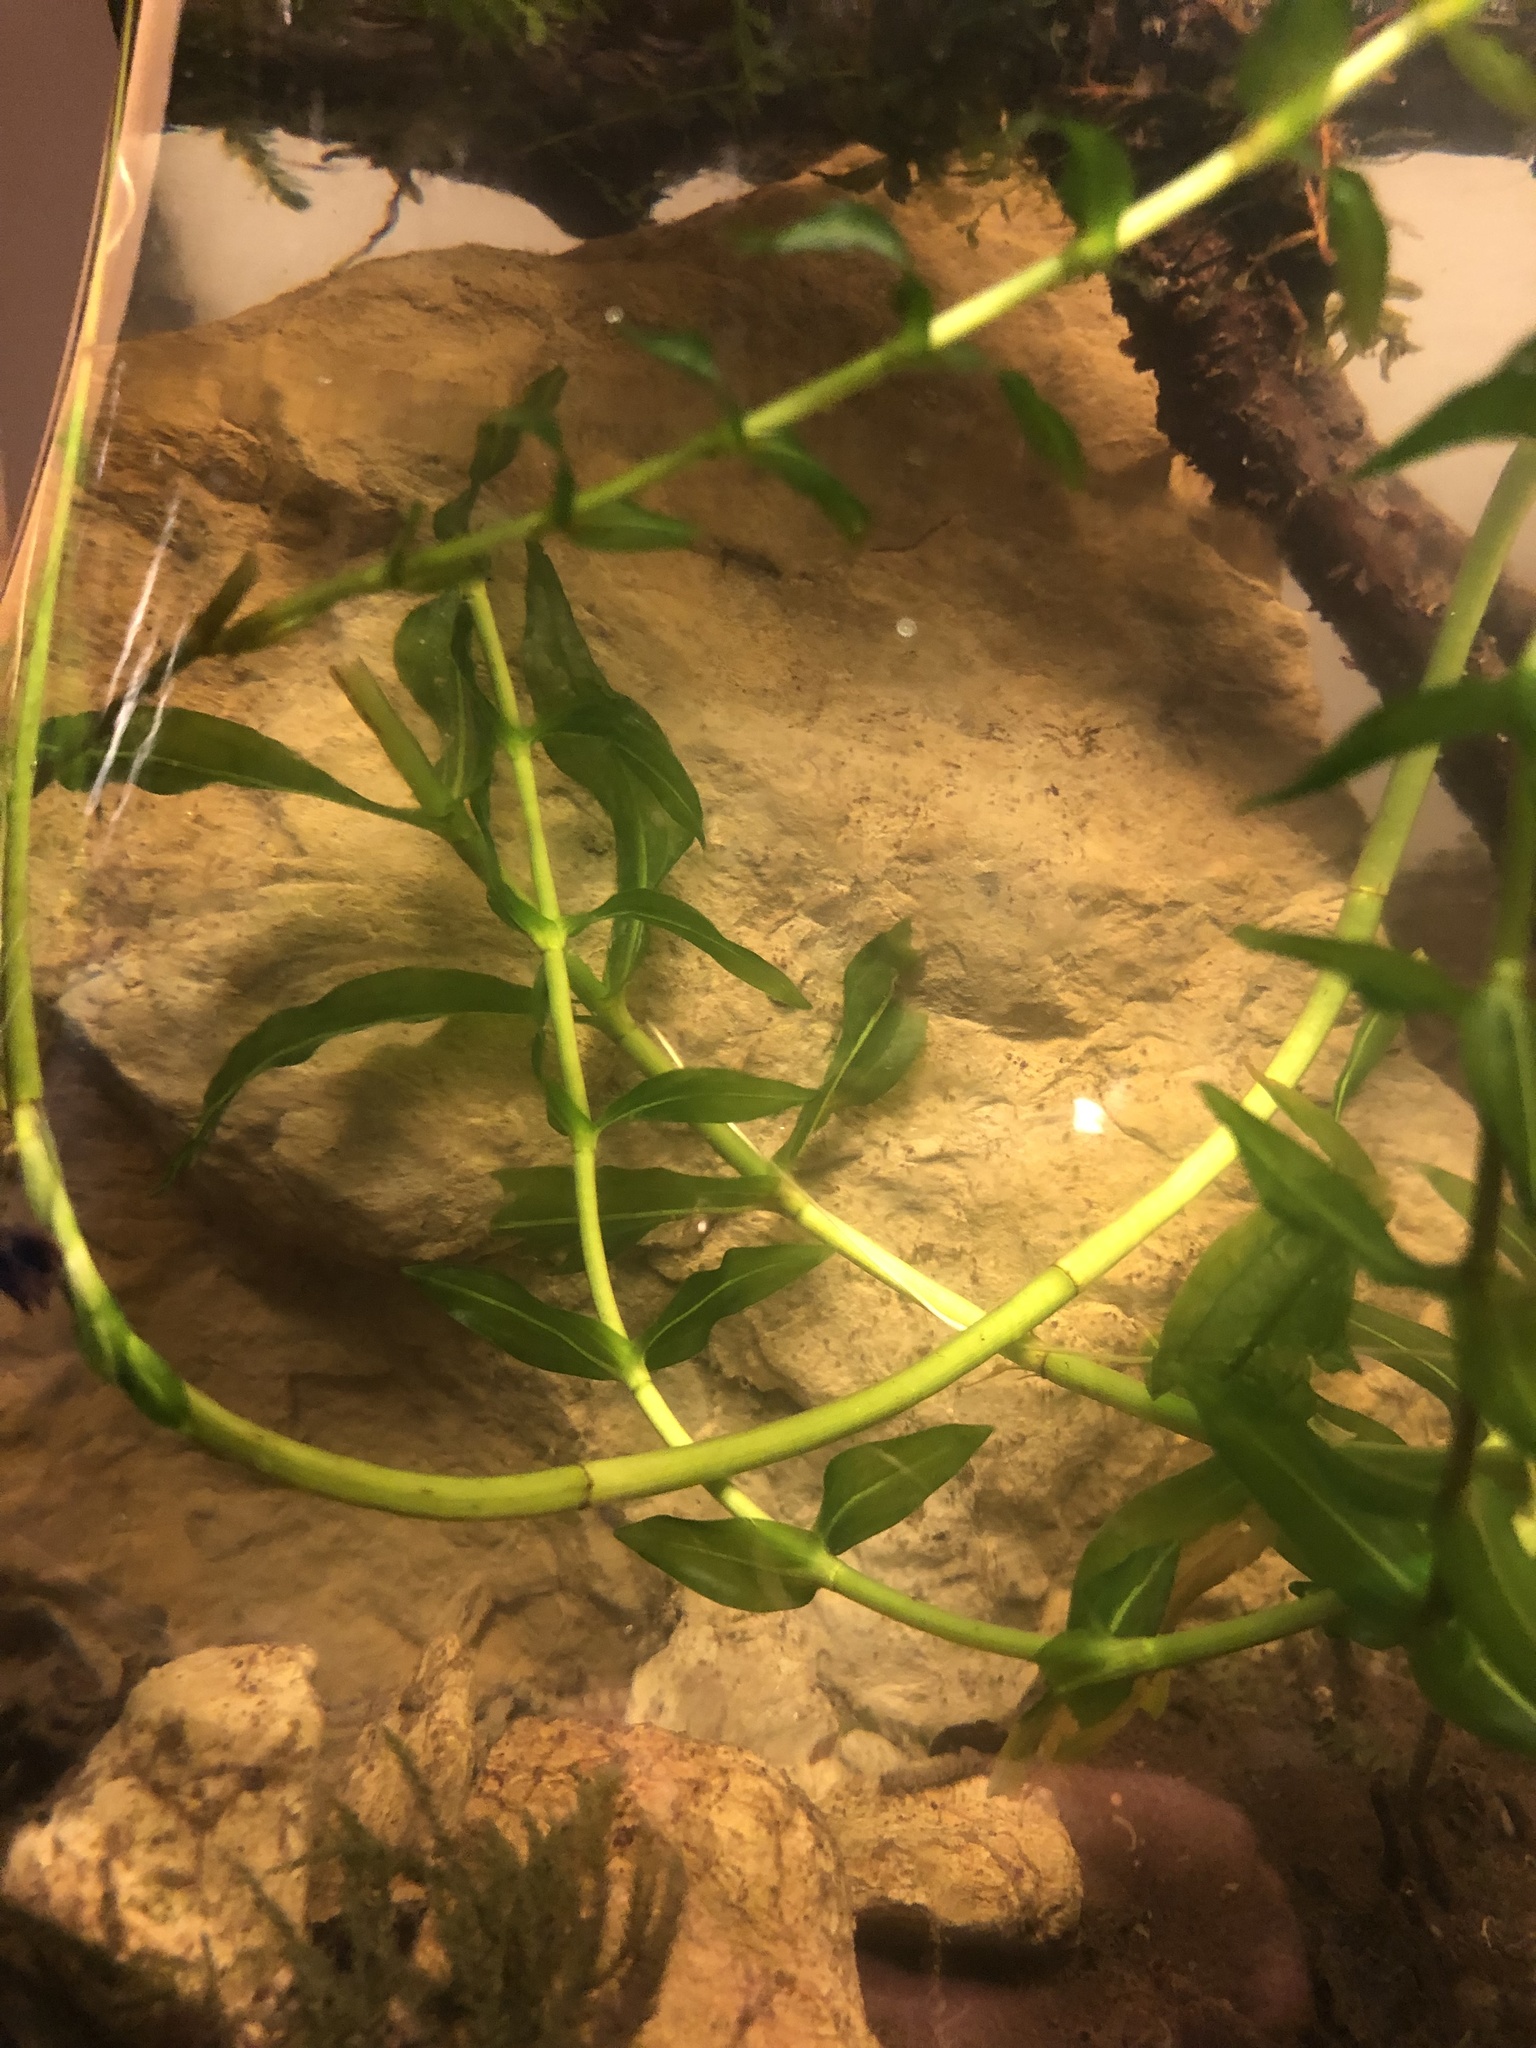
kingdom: Plantae
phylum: Tracheophyta
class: Liliopsida
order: Alismatales
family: Potamogetonaceae
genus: Groenlandia
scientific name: Groenlandia densa
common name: Opposite-leaved pondweed
